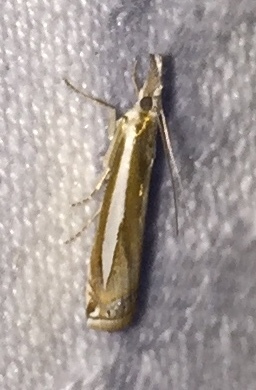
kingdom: Animalia
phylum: Arthropoda
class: Insecta
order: Lepidoptera
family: Crambidae
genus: Crambus
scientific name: Crambus praefectellus
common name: Common grass-veneer
